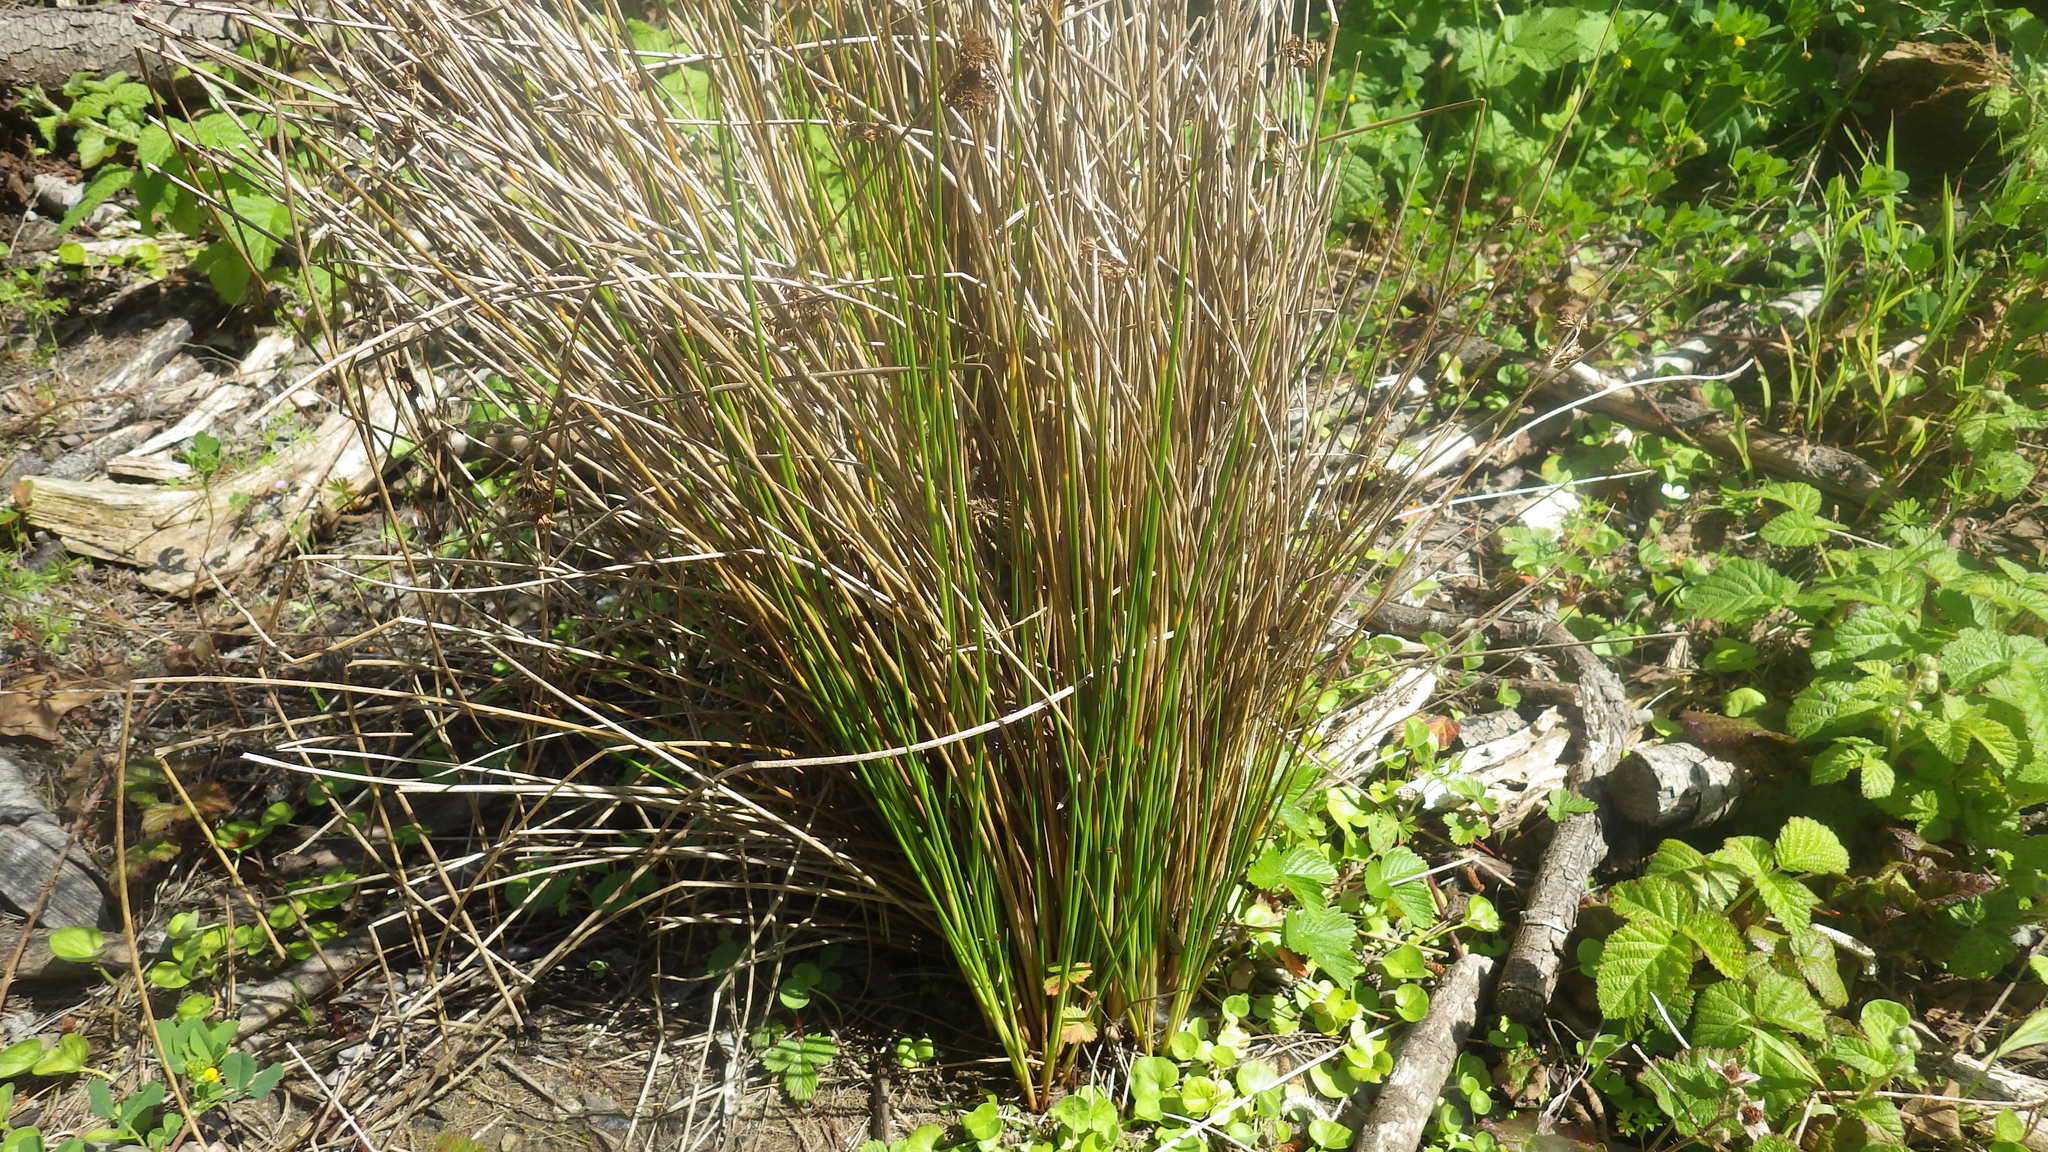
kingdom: Plantae
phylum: Tracheophyta
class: Liliopsida
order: Poales
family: Juncaceae
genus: Juncus
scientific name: Juncus effusus
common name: Soft rush
